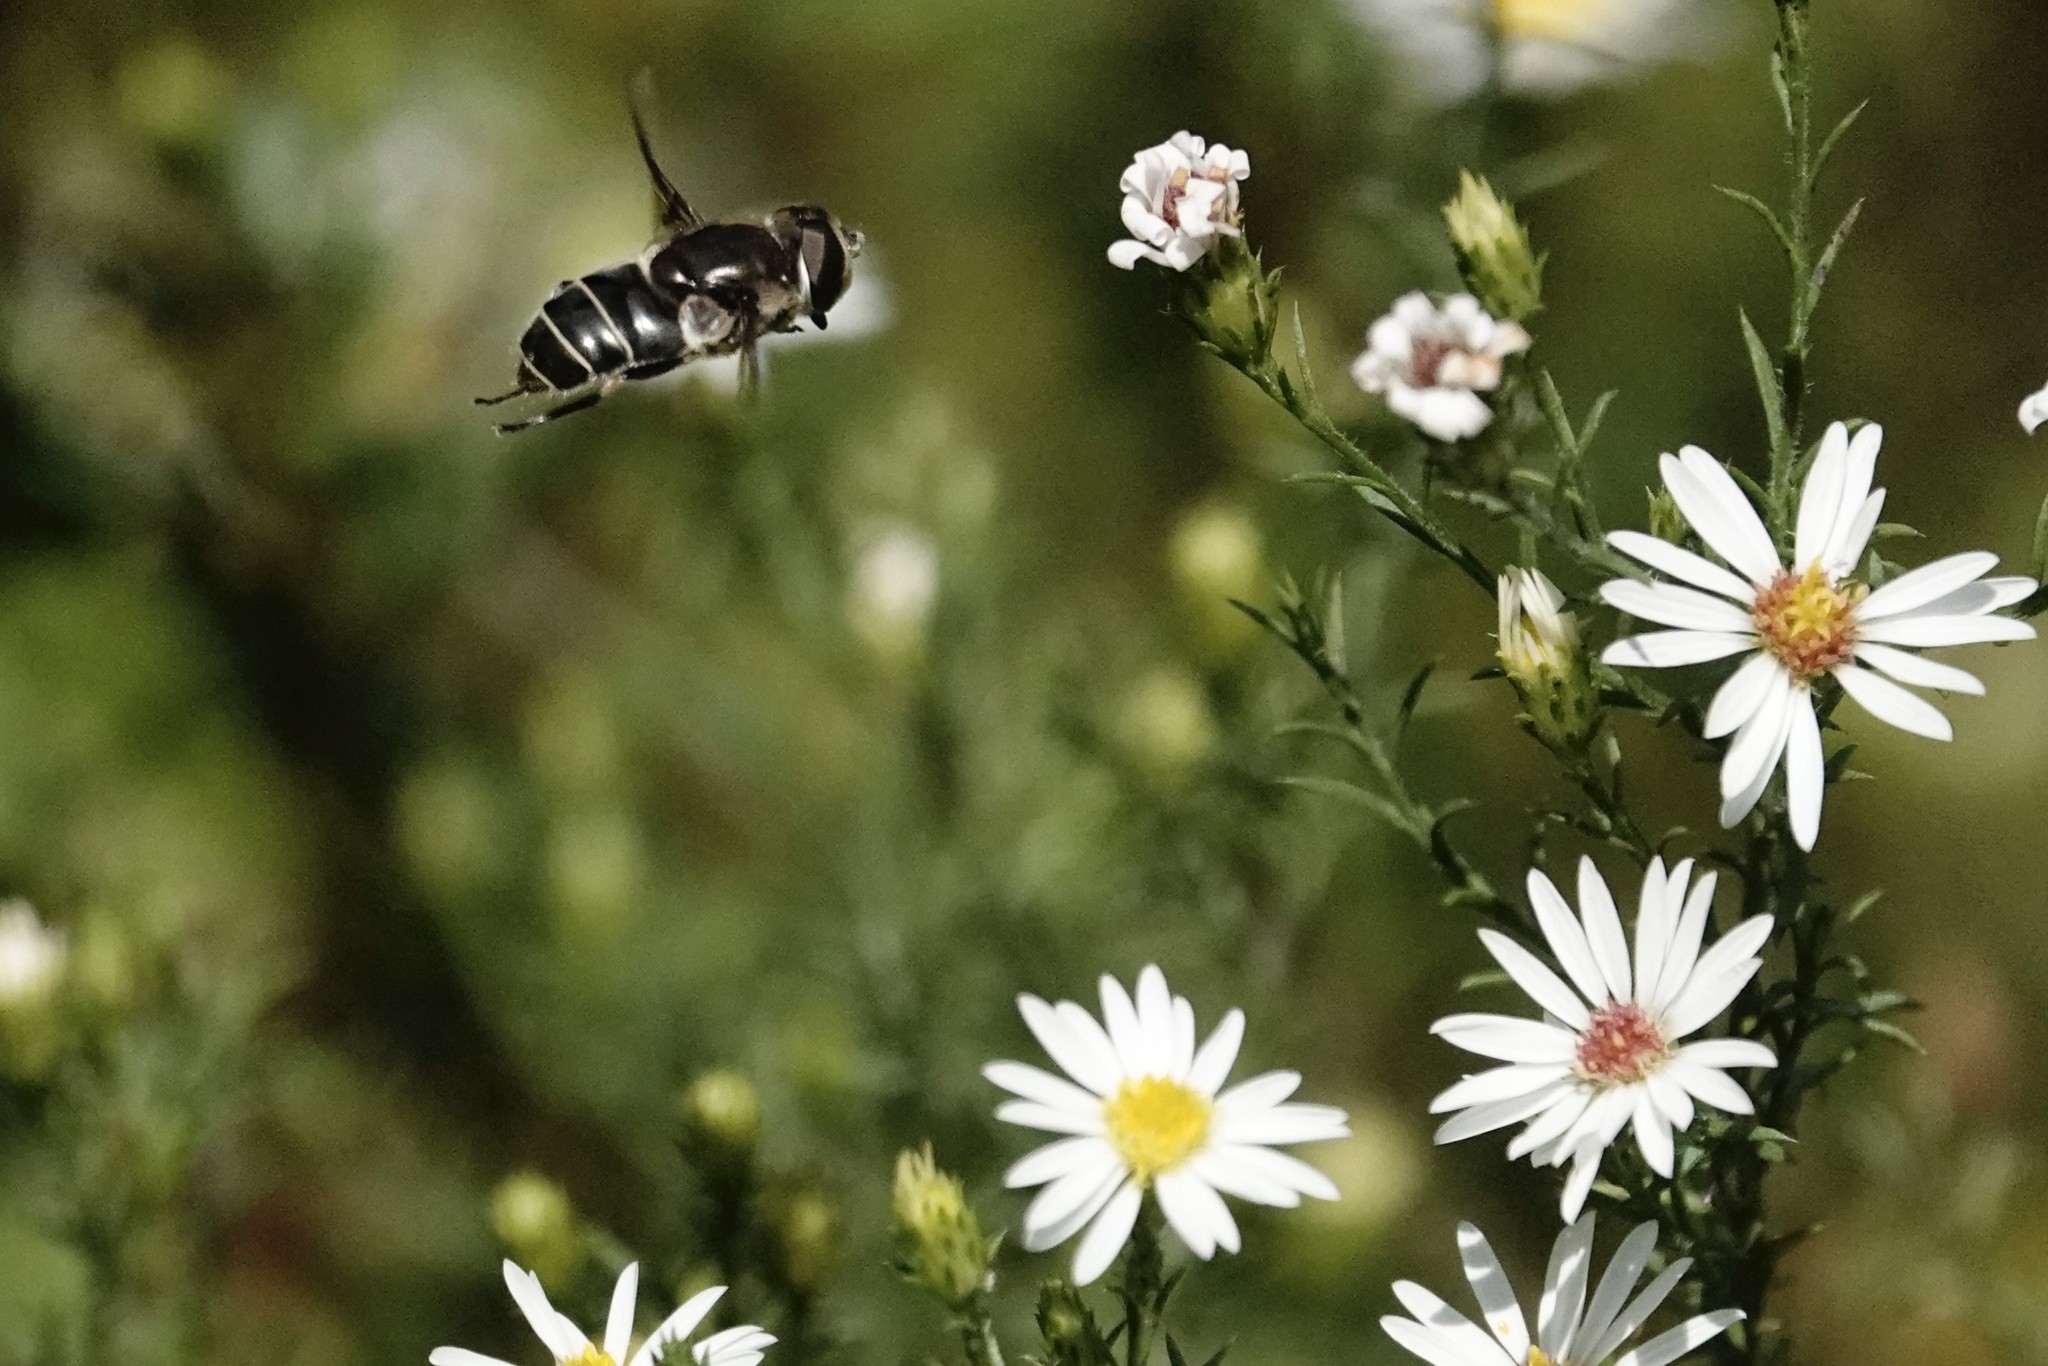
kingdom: Animalia
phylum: Arthropoda
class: Insecta
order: Diptera
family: Syrphidae
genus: Eristalis
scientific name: Eristalis dimidiata
